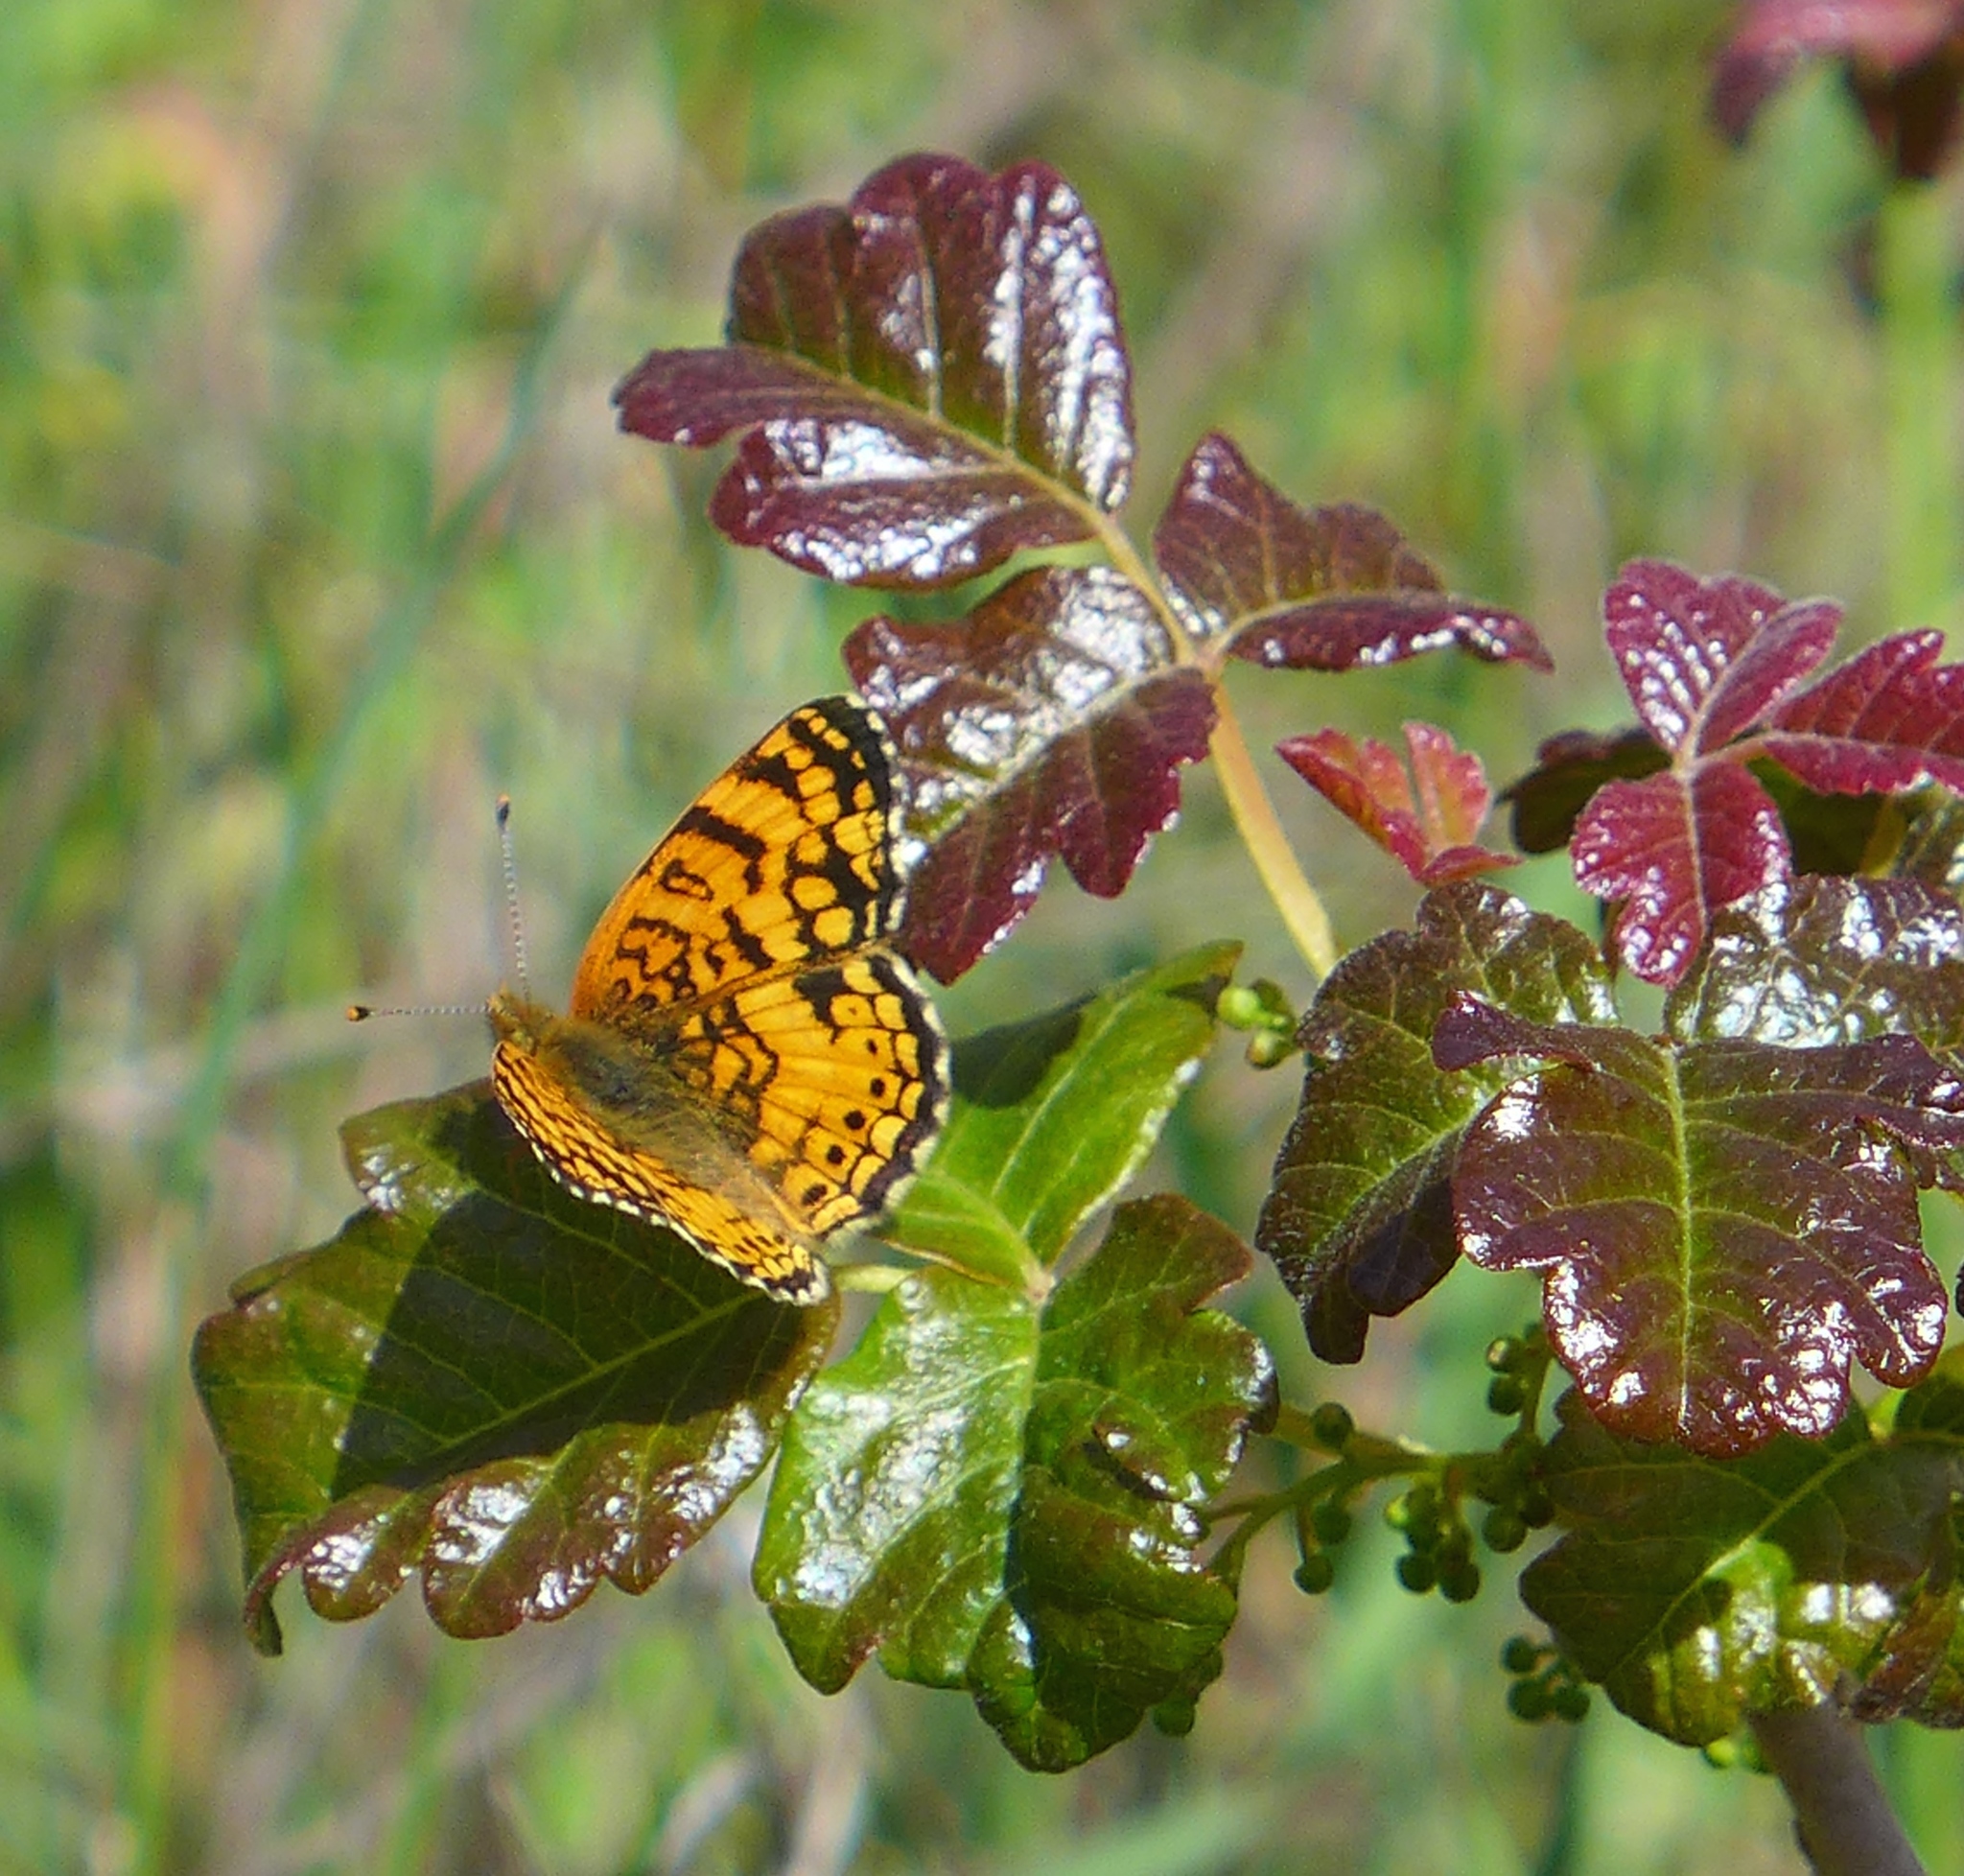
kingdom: Animalia
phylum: Arthropoda
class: Insecta
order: Lepidoptera
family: Nymphalidae
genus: Eresia
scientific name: Eresia aveyrona
